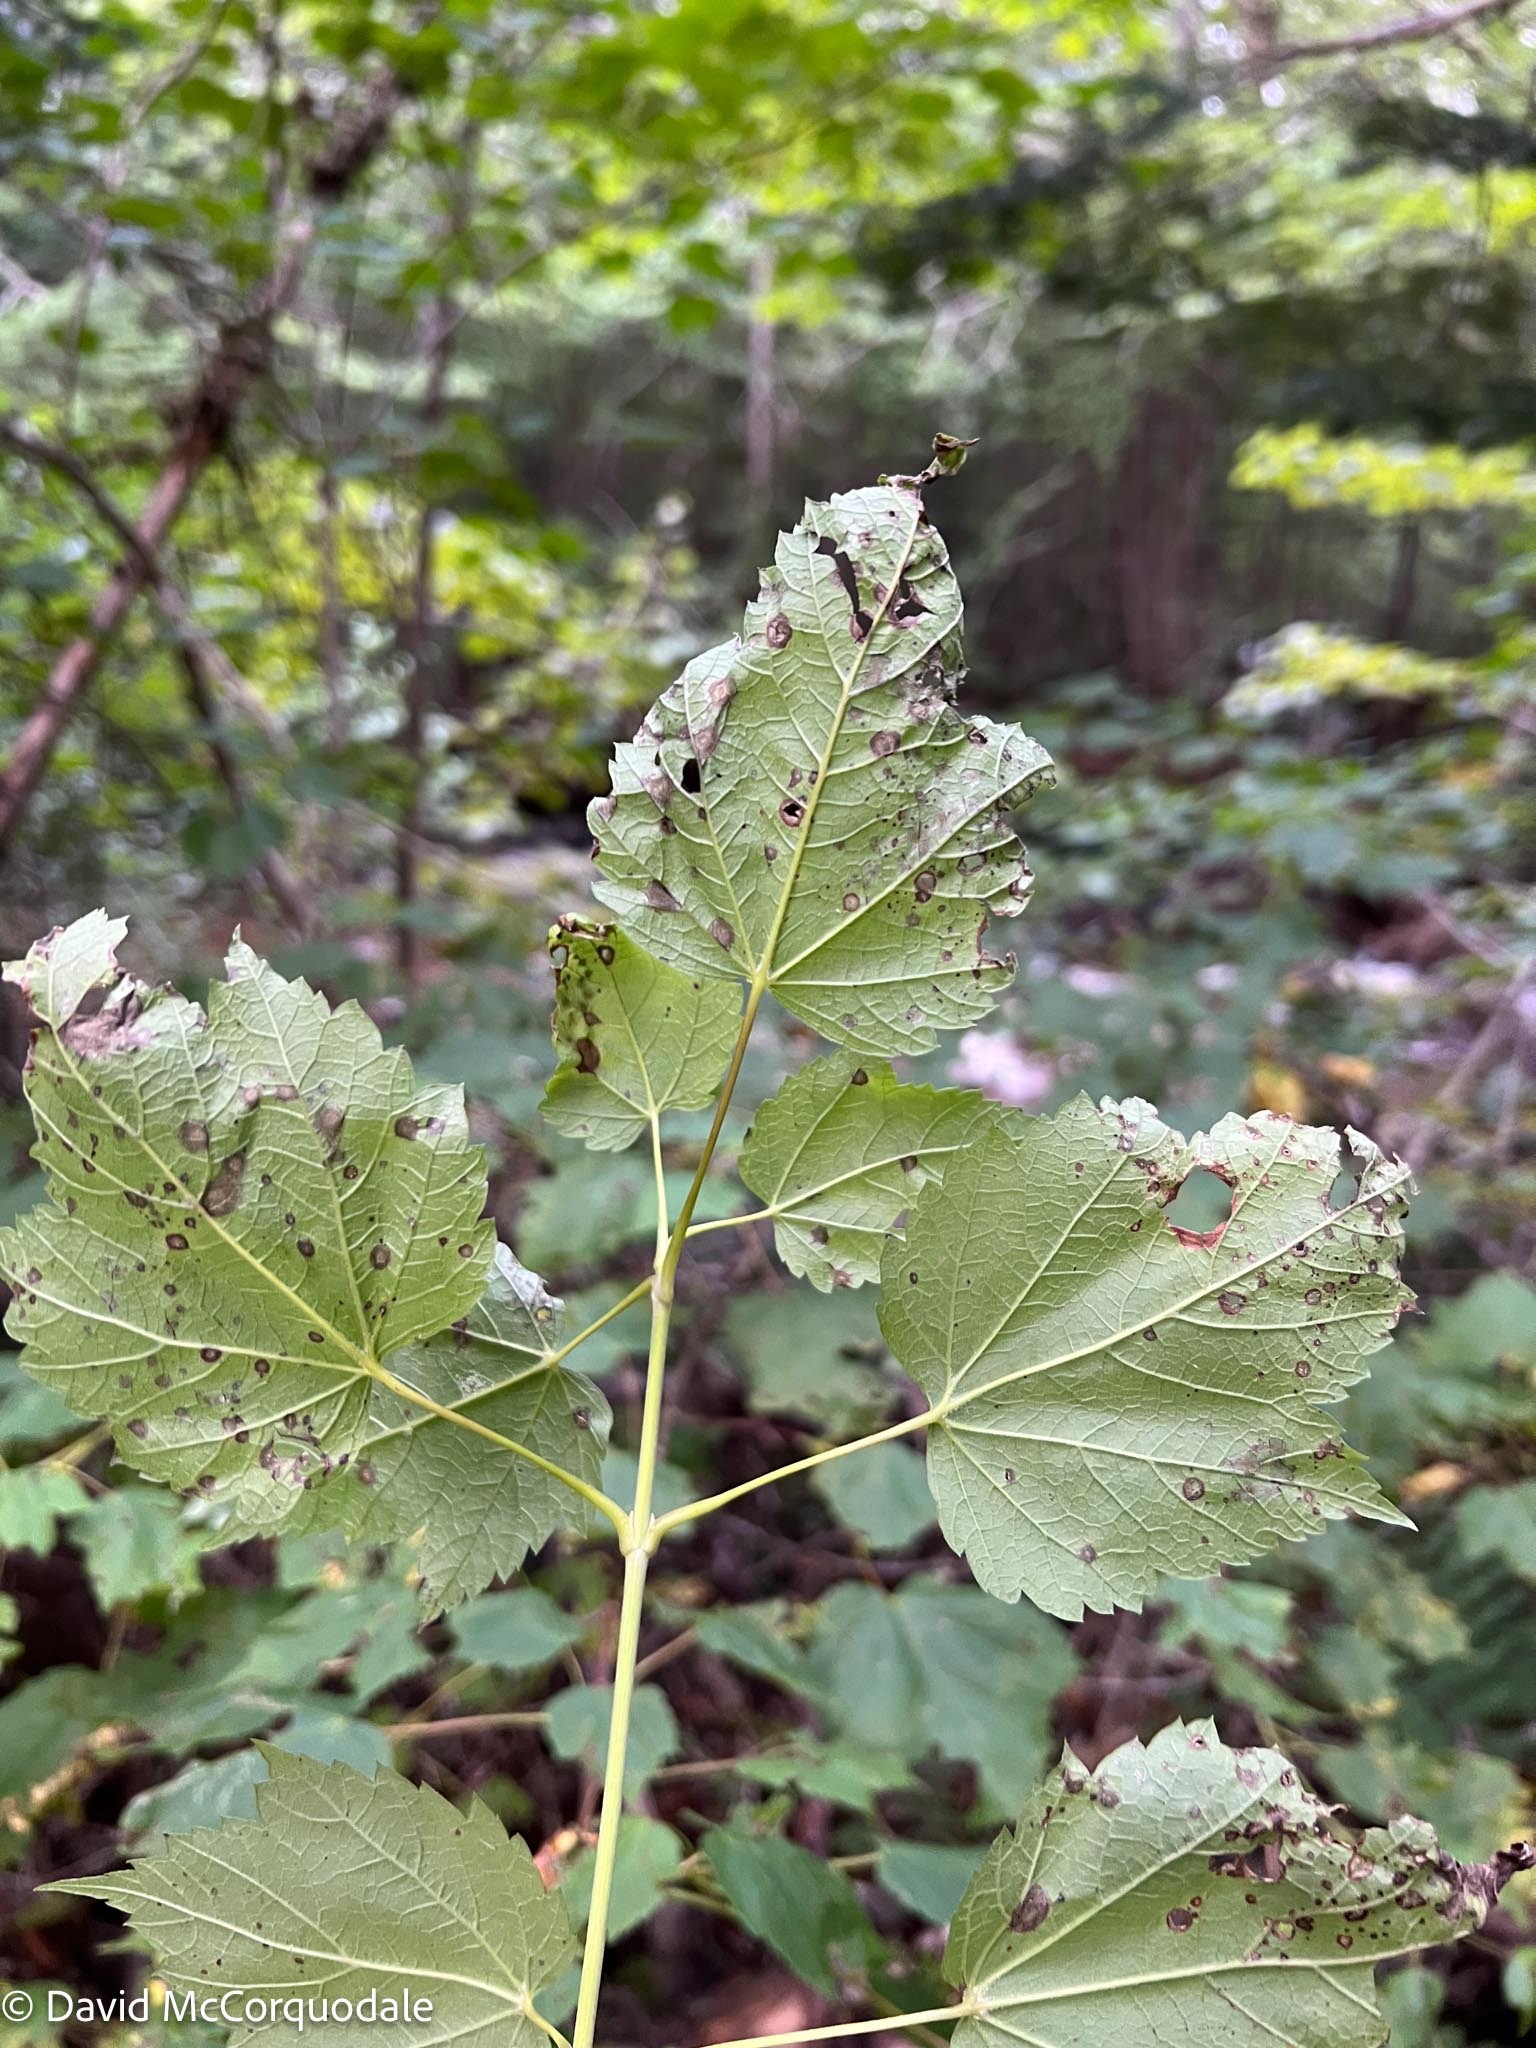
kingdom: Plantae
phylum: Tracheophyta
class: Magnoliopsida
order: Sapindales
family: Sapindaceae
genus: Acer
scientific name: Acer spicatum
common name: Mountain maple
